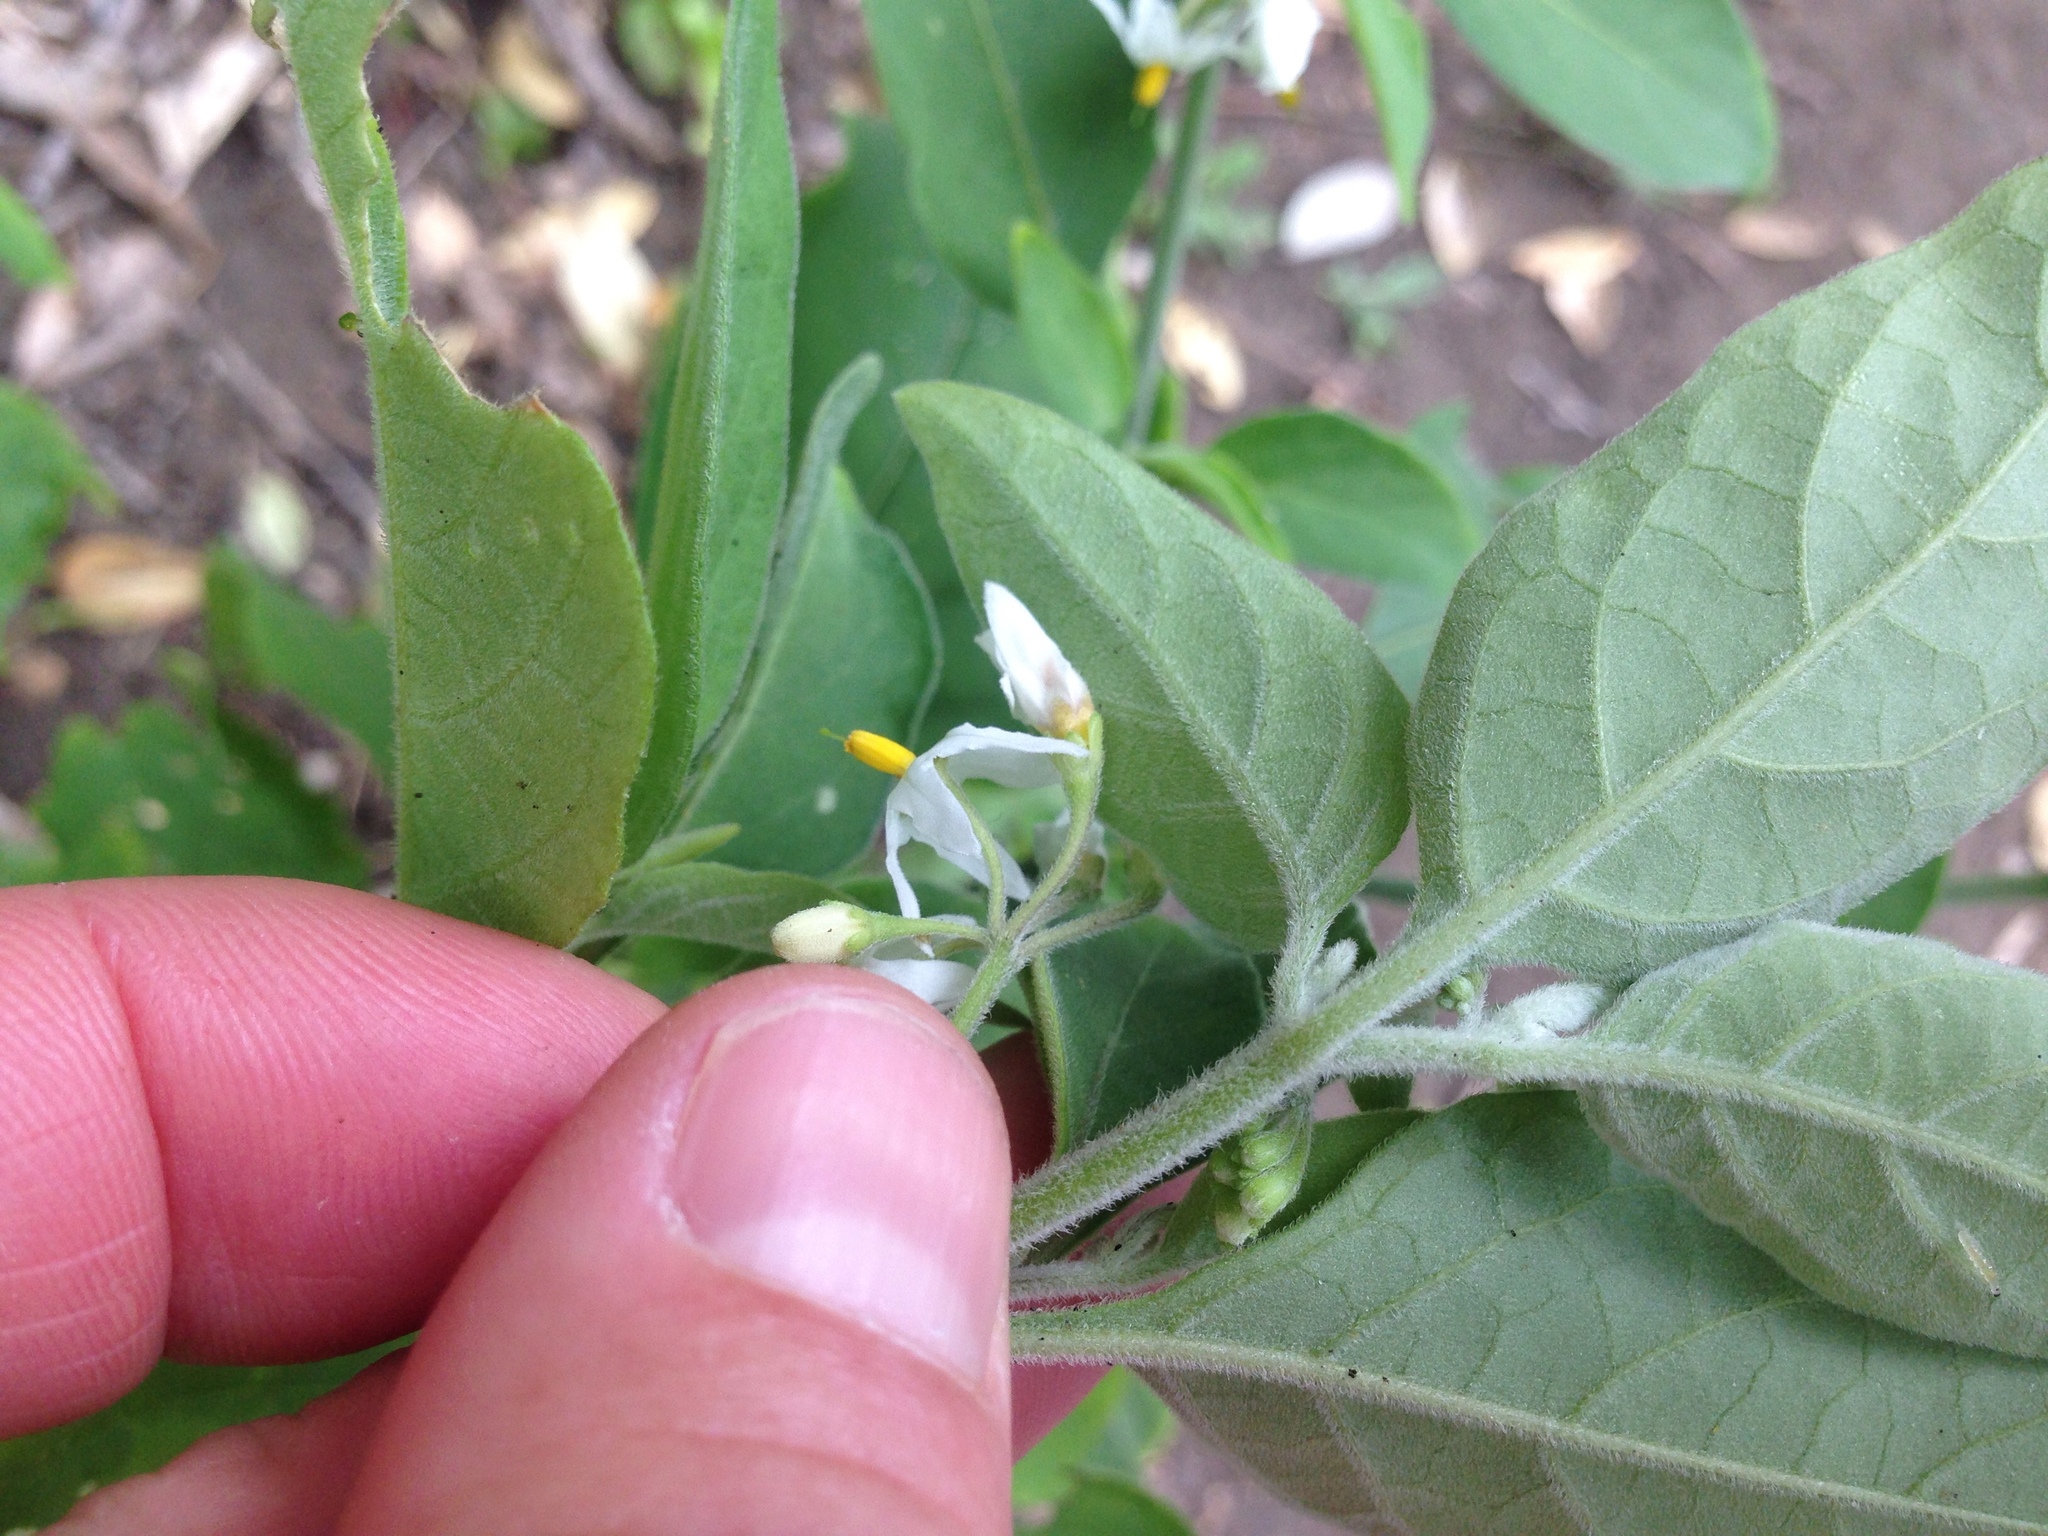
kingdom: Plantae
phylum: Tracheophyta
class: Magnoliopsida
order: Solanales
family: Solanaceae
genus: Solanum
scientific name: Solanum chenopodioides
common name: Tall nightshade
